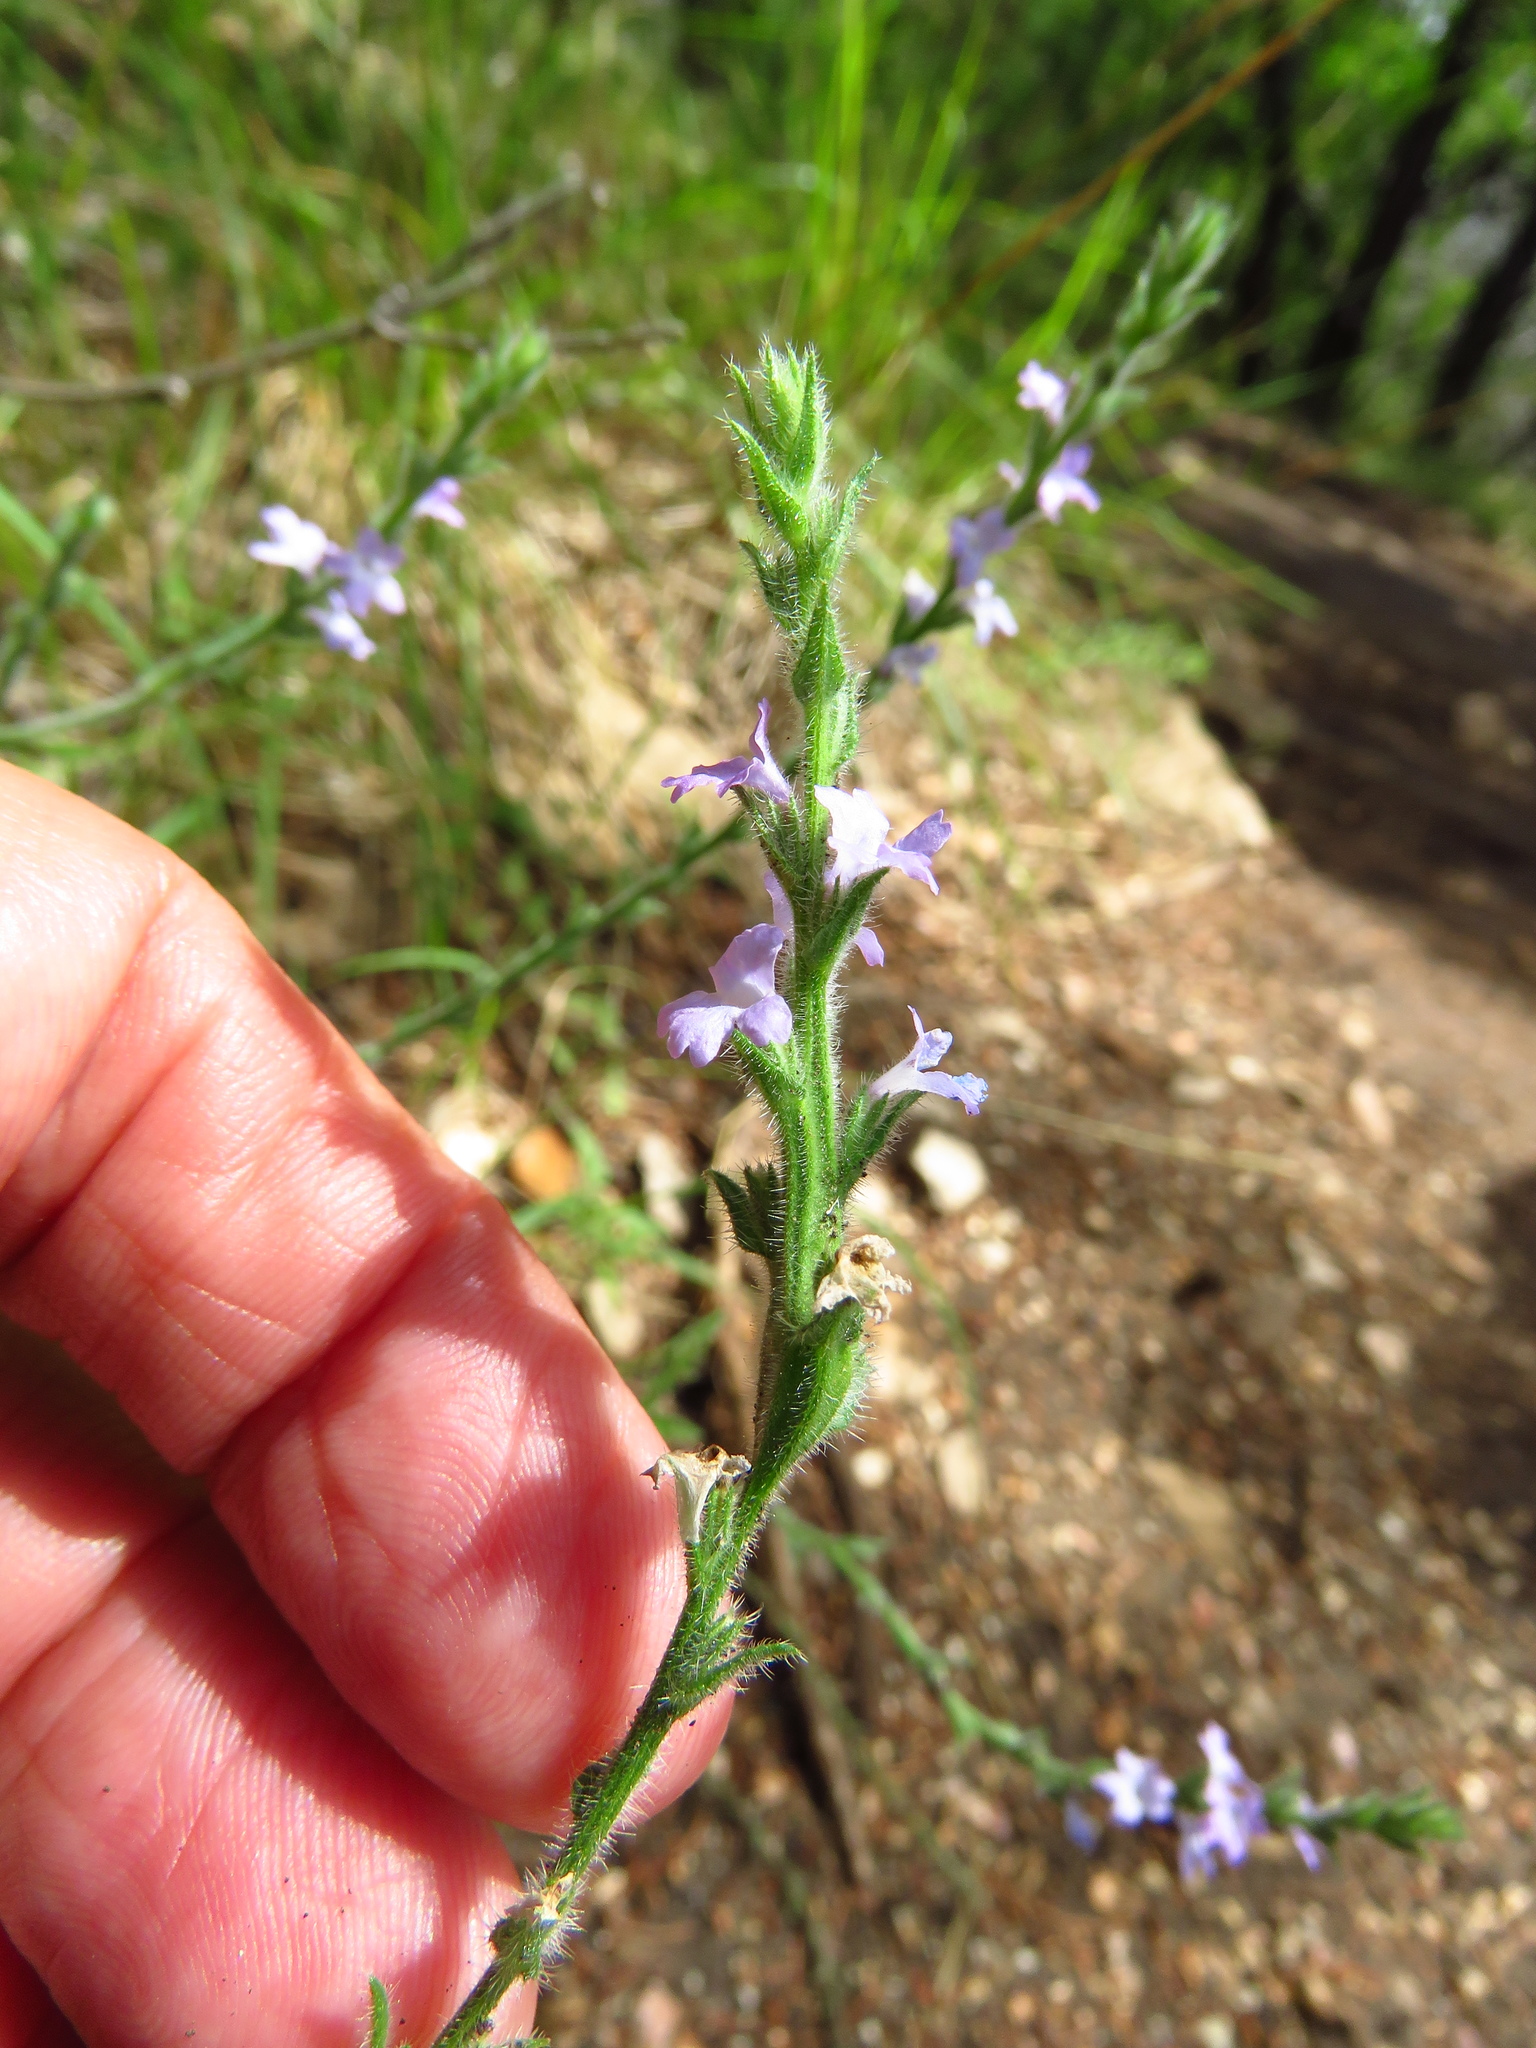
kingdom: Plantae
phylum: Tracheophyta
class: Magnoliopsida
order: Lamiales
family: Verbenaceae
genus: Verbena
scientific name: Verbena canescens
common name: Gray vervain
